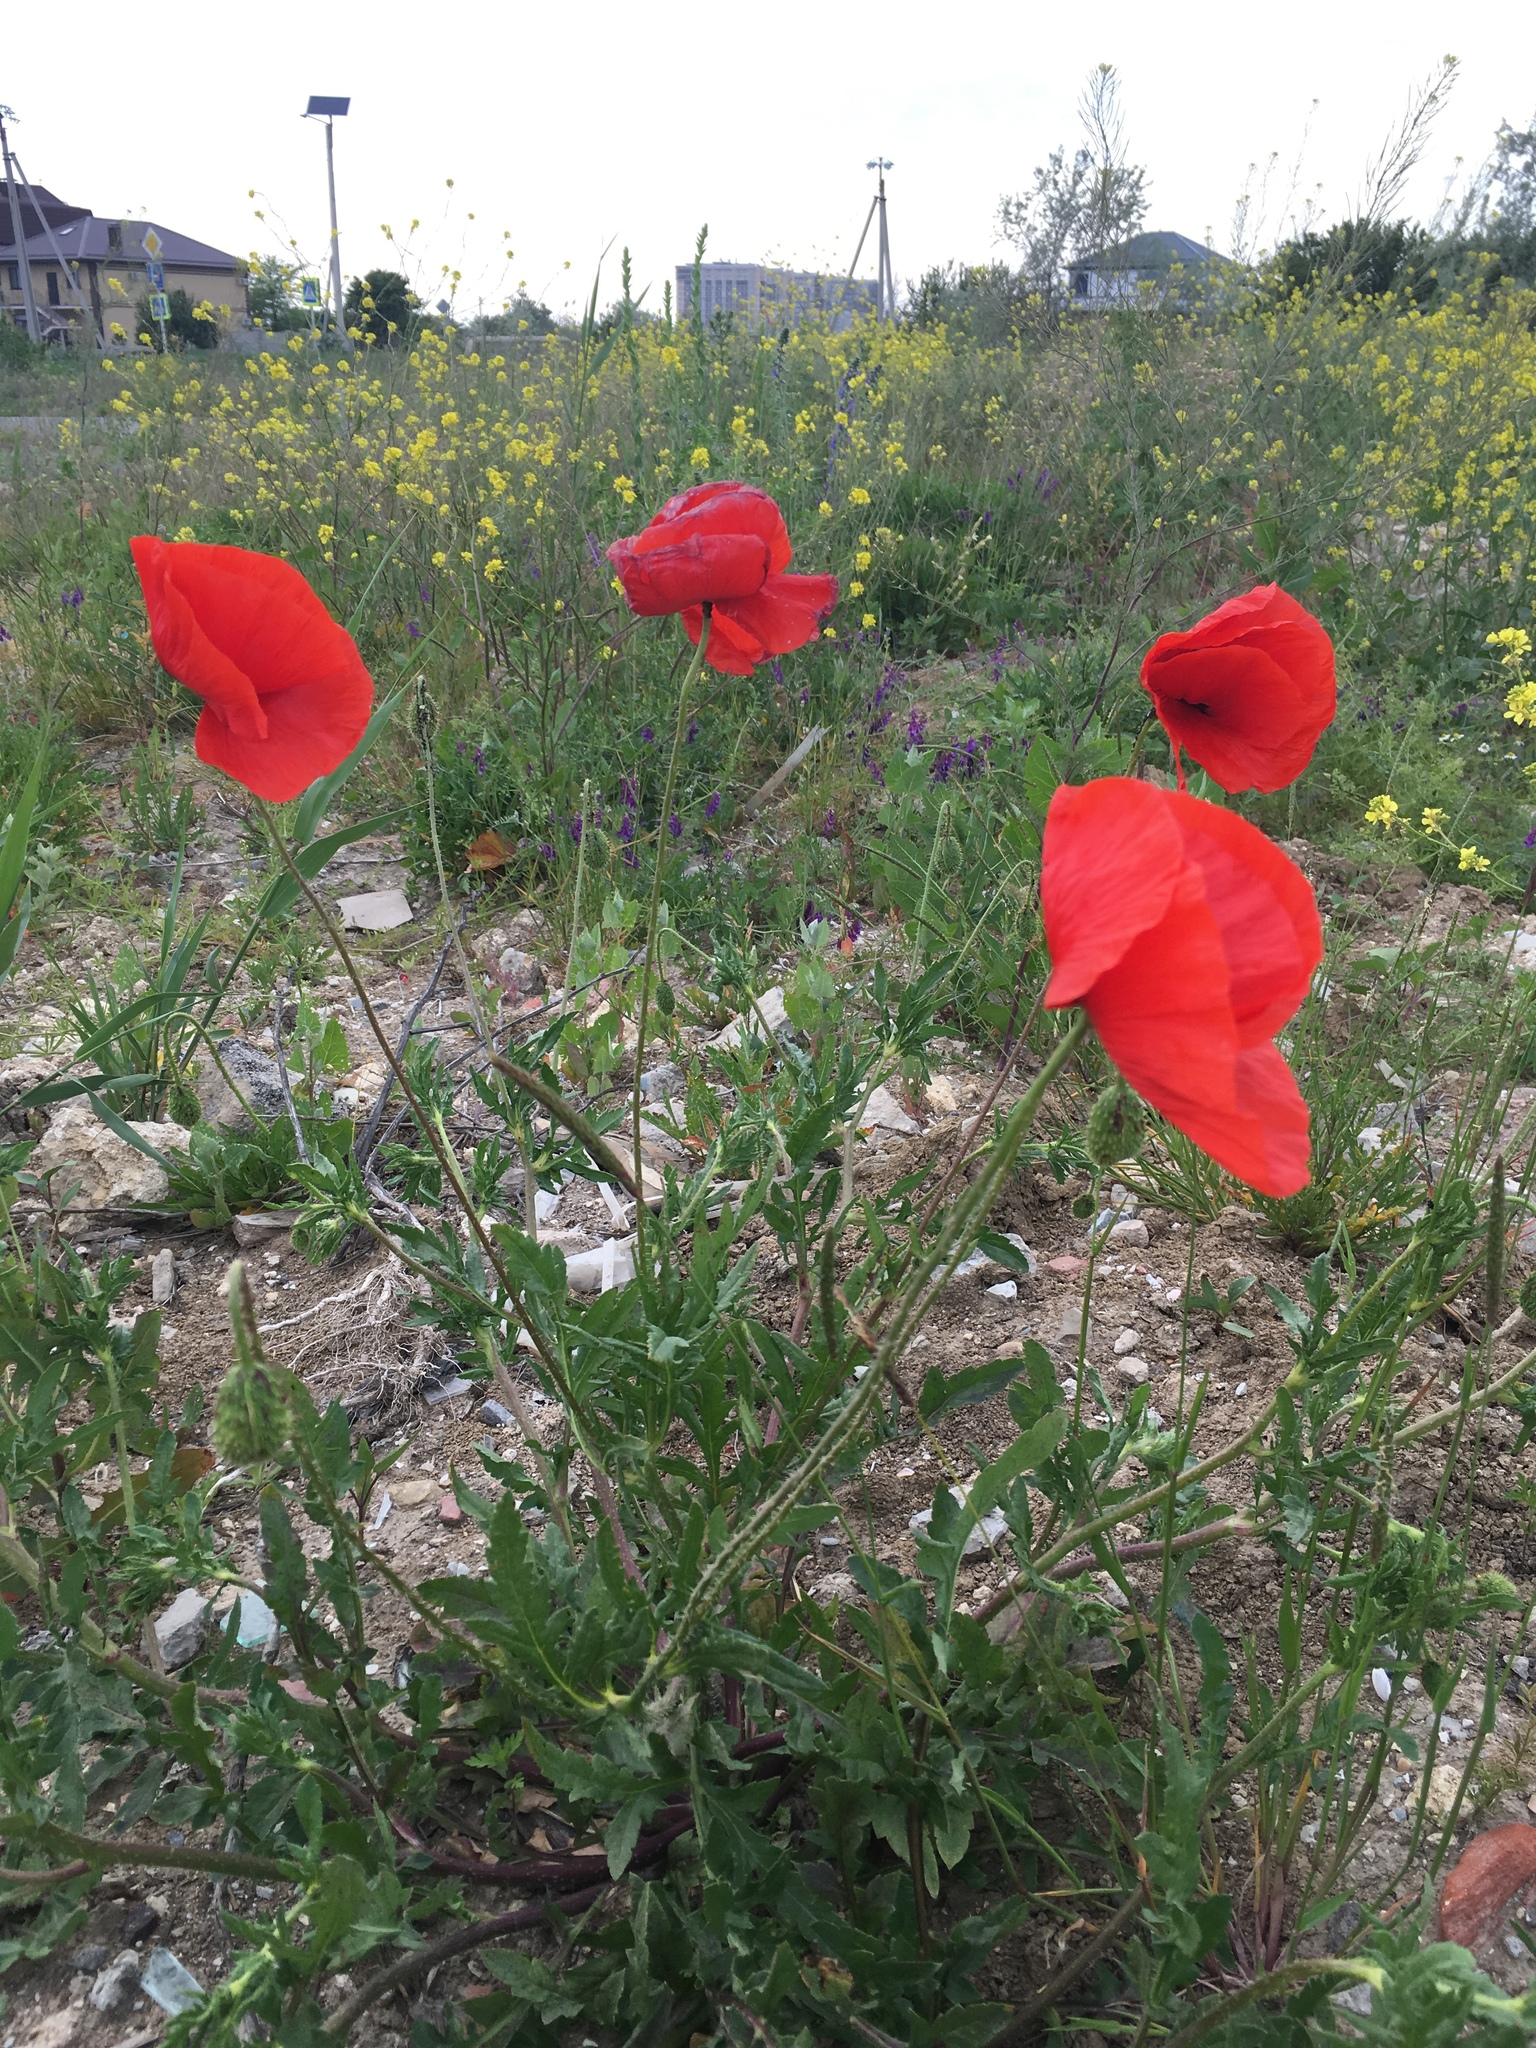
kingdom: Plantae
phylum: Tracheophyta
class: Magnoliopsida
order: Ranunculales
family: Papaveraceae
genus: Papaver
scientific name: Papaver rhoeas
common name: Corn poppy
